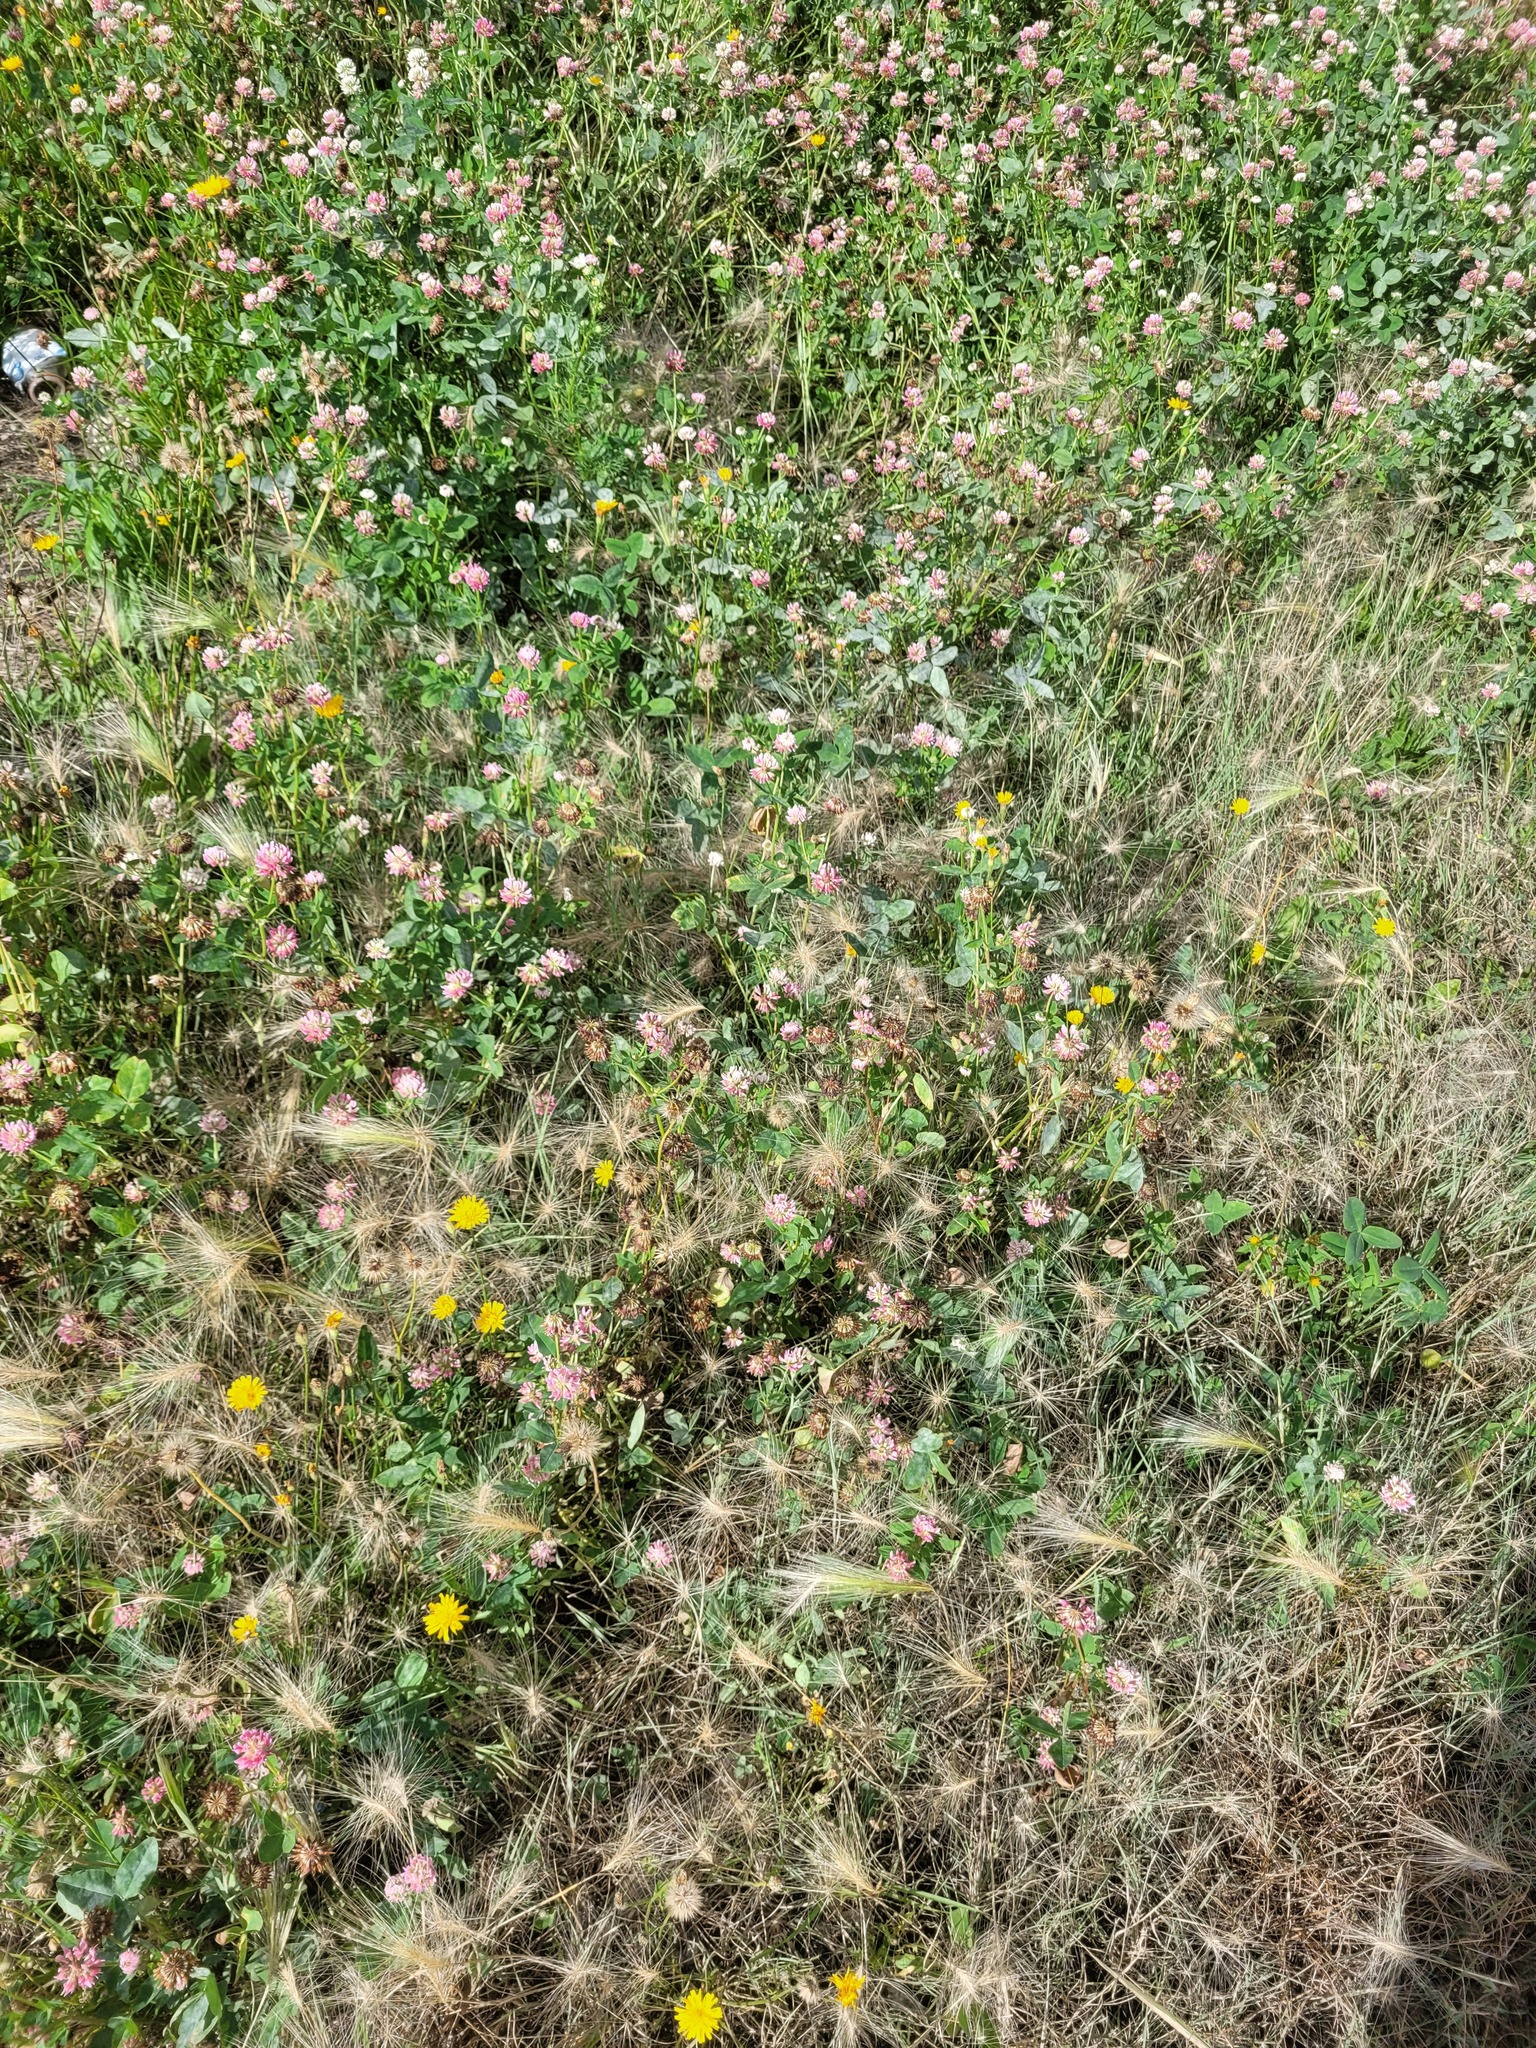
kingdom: Plantae
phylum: Tracheophyta
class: Magnoliopsida
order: Fabales
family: Fabaceae
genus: Trifolium
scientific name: Trifolium hybridum
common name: Alsike clover
